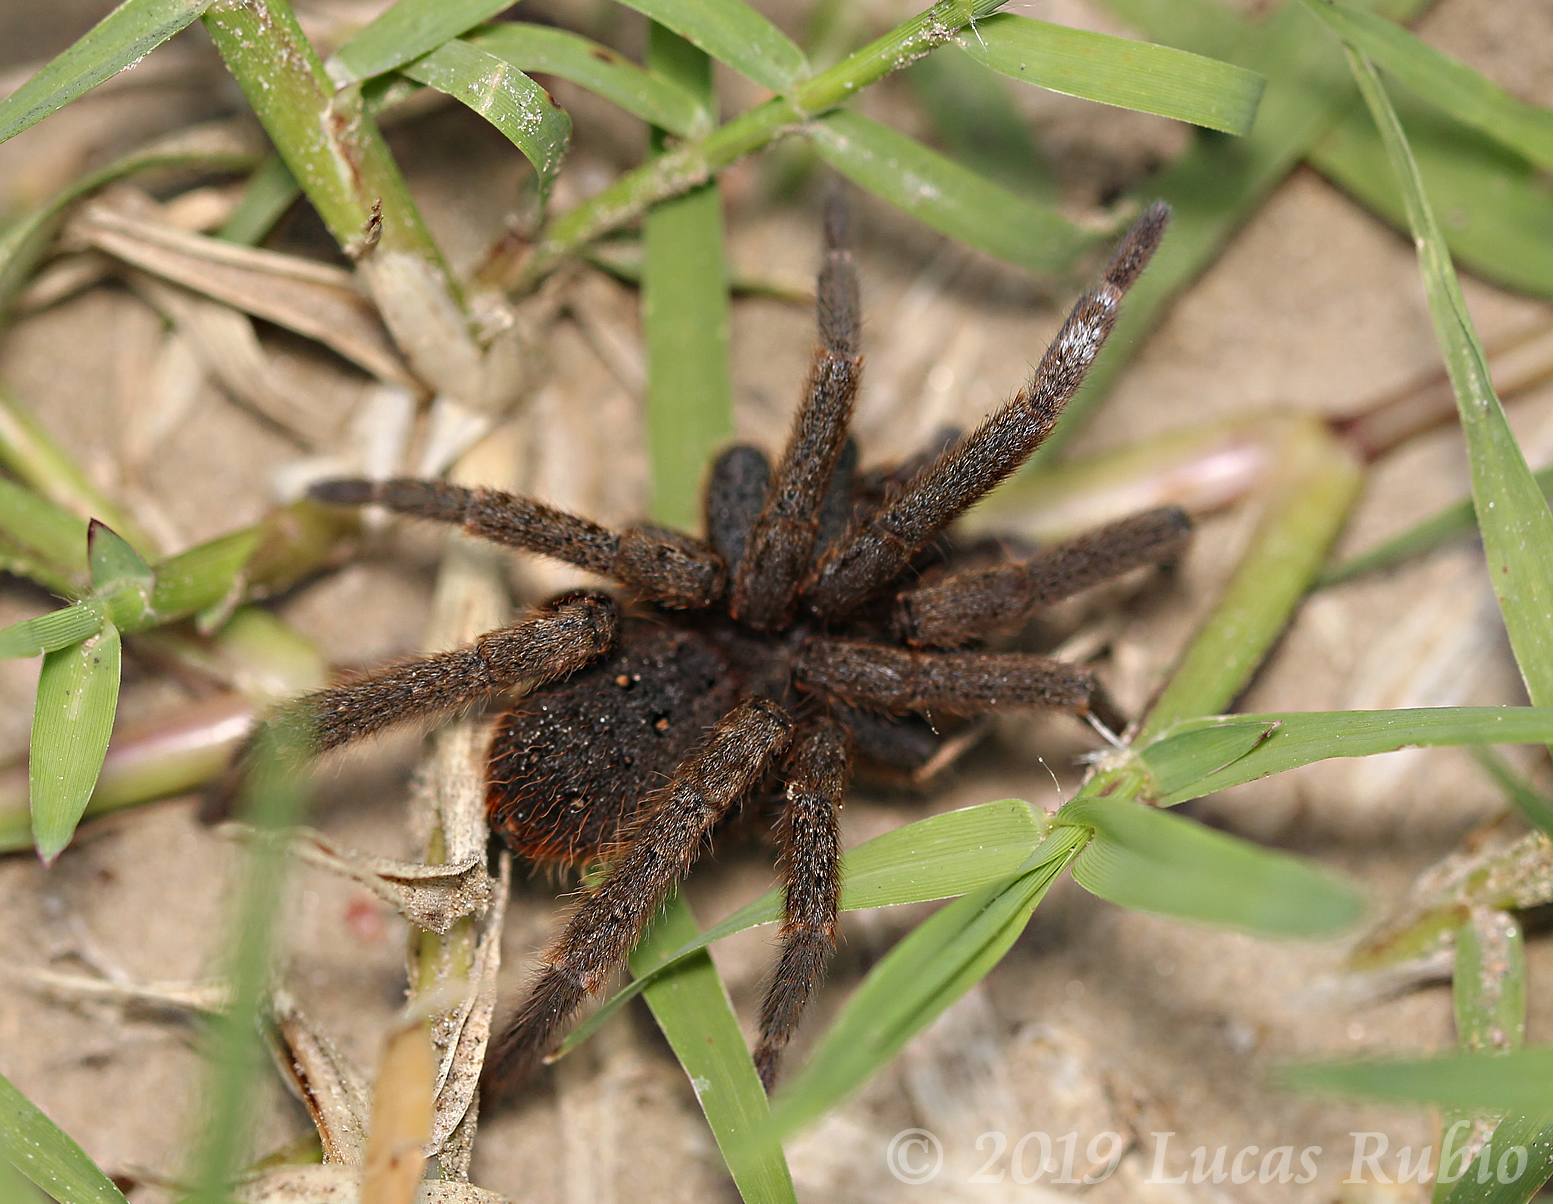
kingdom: Animalia
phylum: Arthropoda
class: Arachnida
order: Araneae
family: Ctenidae
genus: Ancylometes
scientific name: Ancylometes concolor
